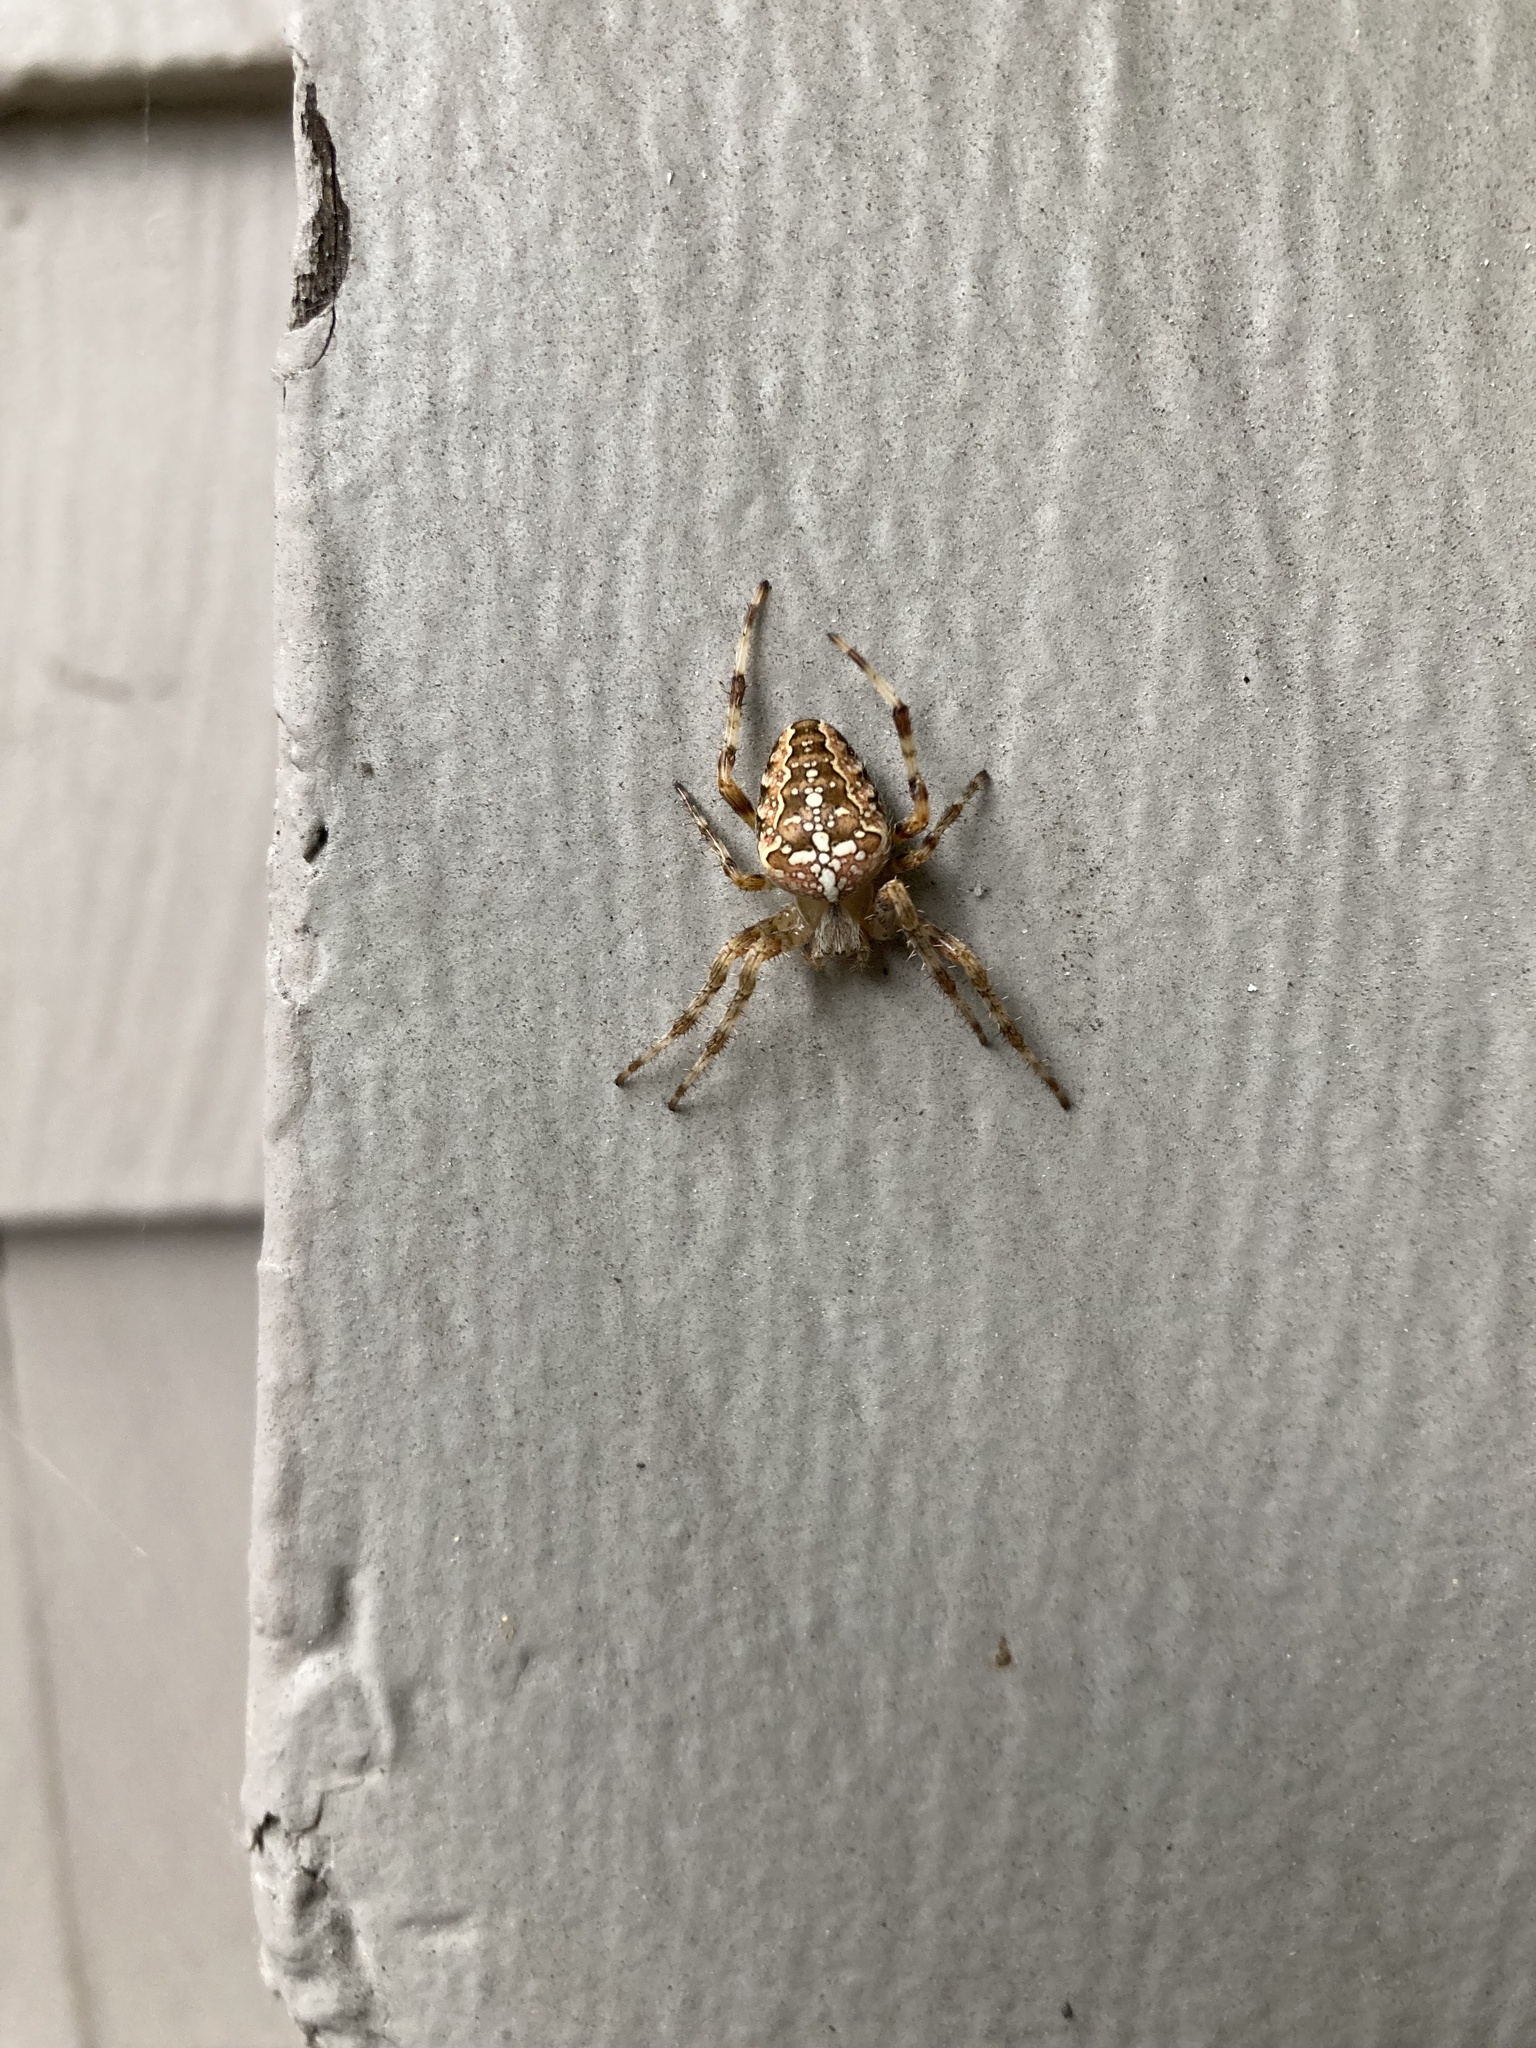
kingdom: Animalia
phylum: Arthropoda
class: Arachnida
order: Araneae
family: Araneidae
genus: Araneus
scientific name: Araneus diadematus
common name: Cross orbweaver
